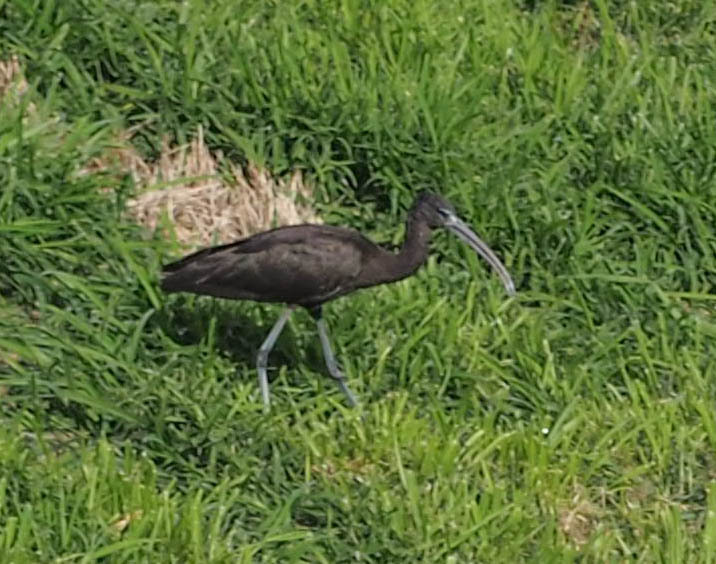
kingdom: Animalia
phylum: Chordata
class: Aves
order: Pelecaniformes
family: Threskiornithidae
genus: Plegadis
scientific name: Plegadis falcinellus
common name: Glossy ibis
